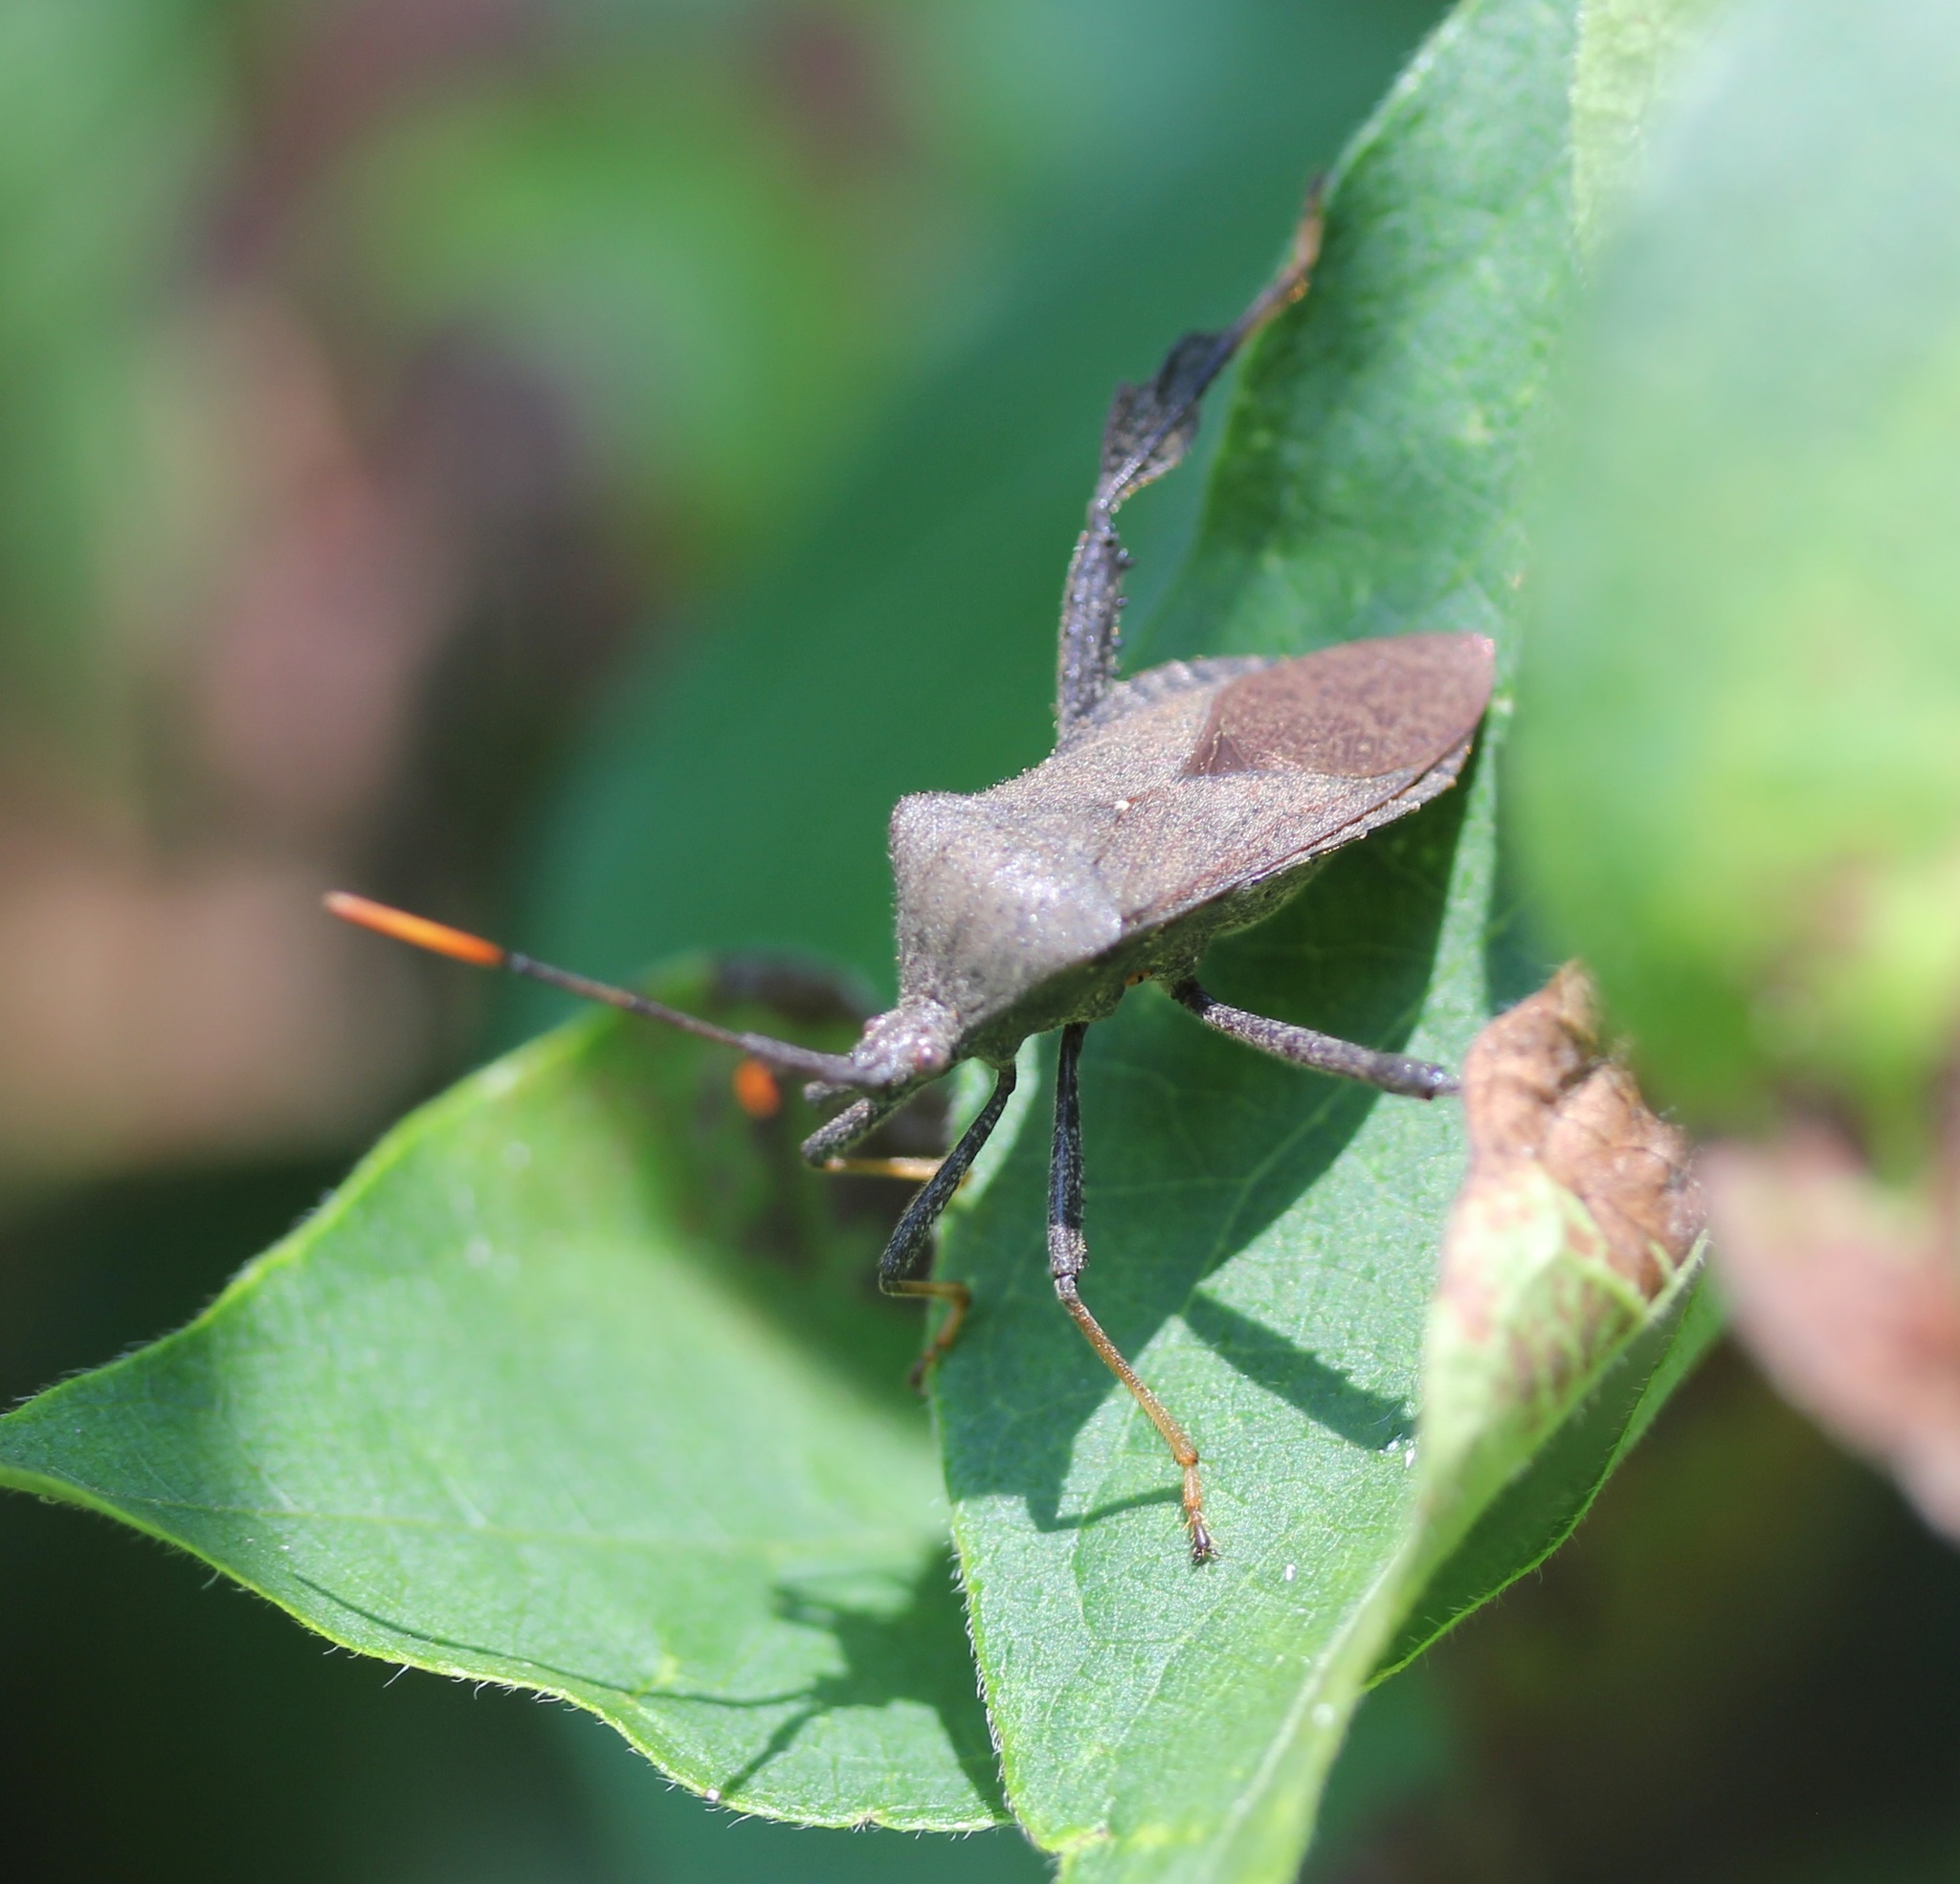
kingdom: Animalia
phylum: Arthropoda
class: Insecta
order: Hemiptera
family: Coreidae
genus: Acanthocephala
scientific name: Acanthocephala terminalis
